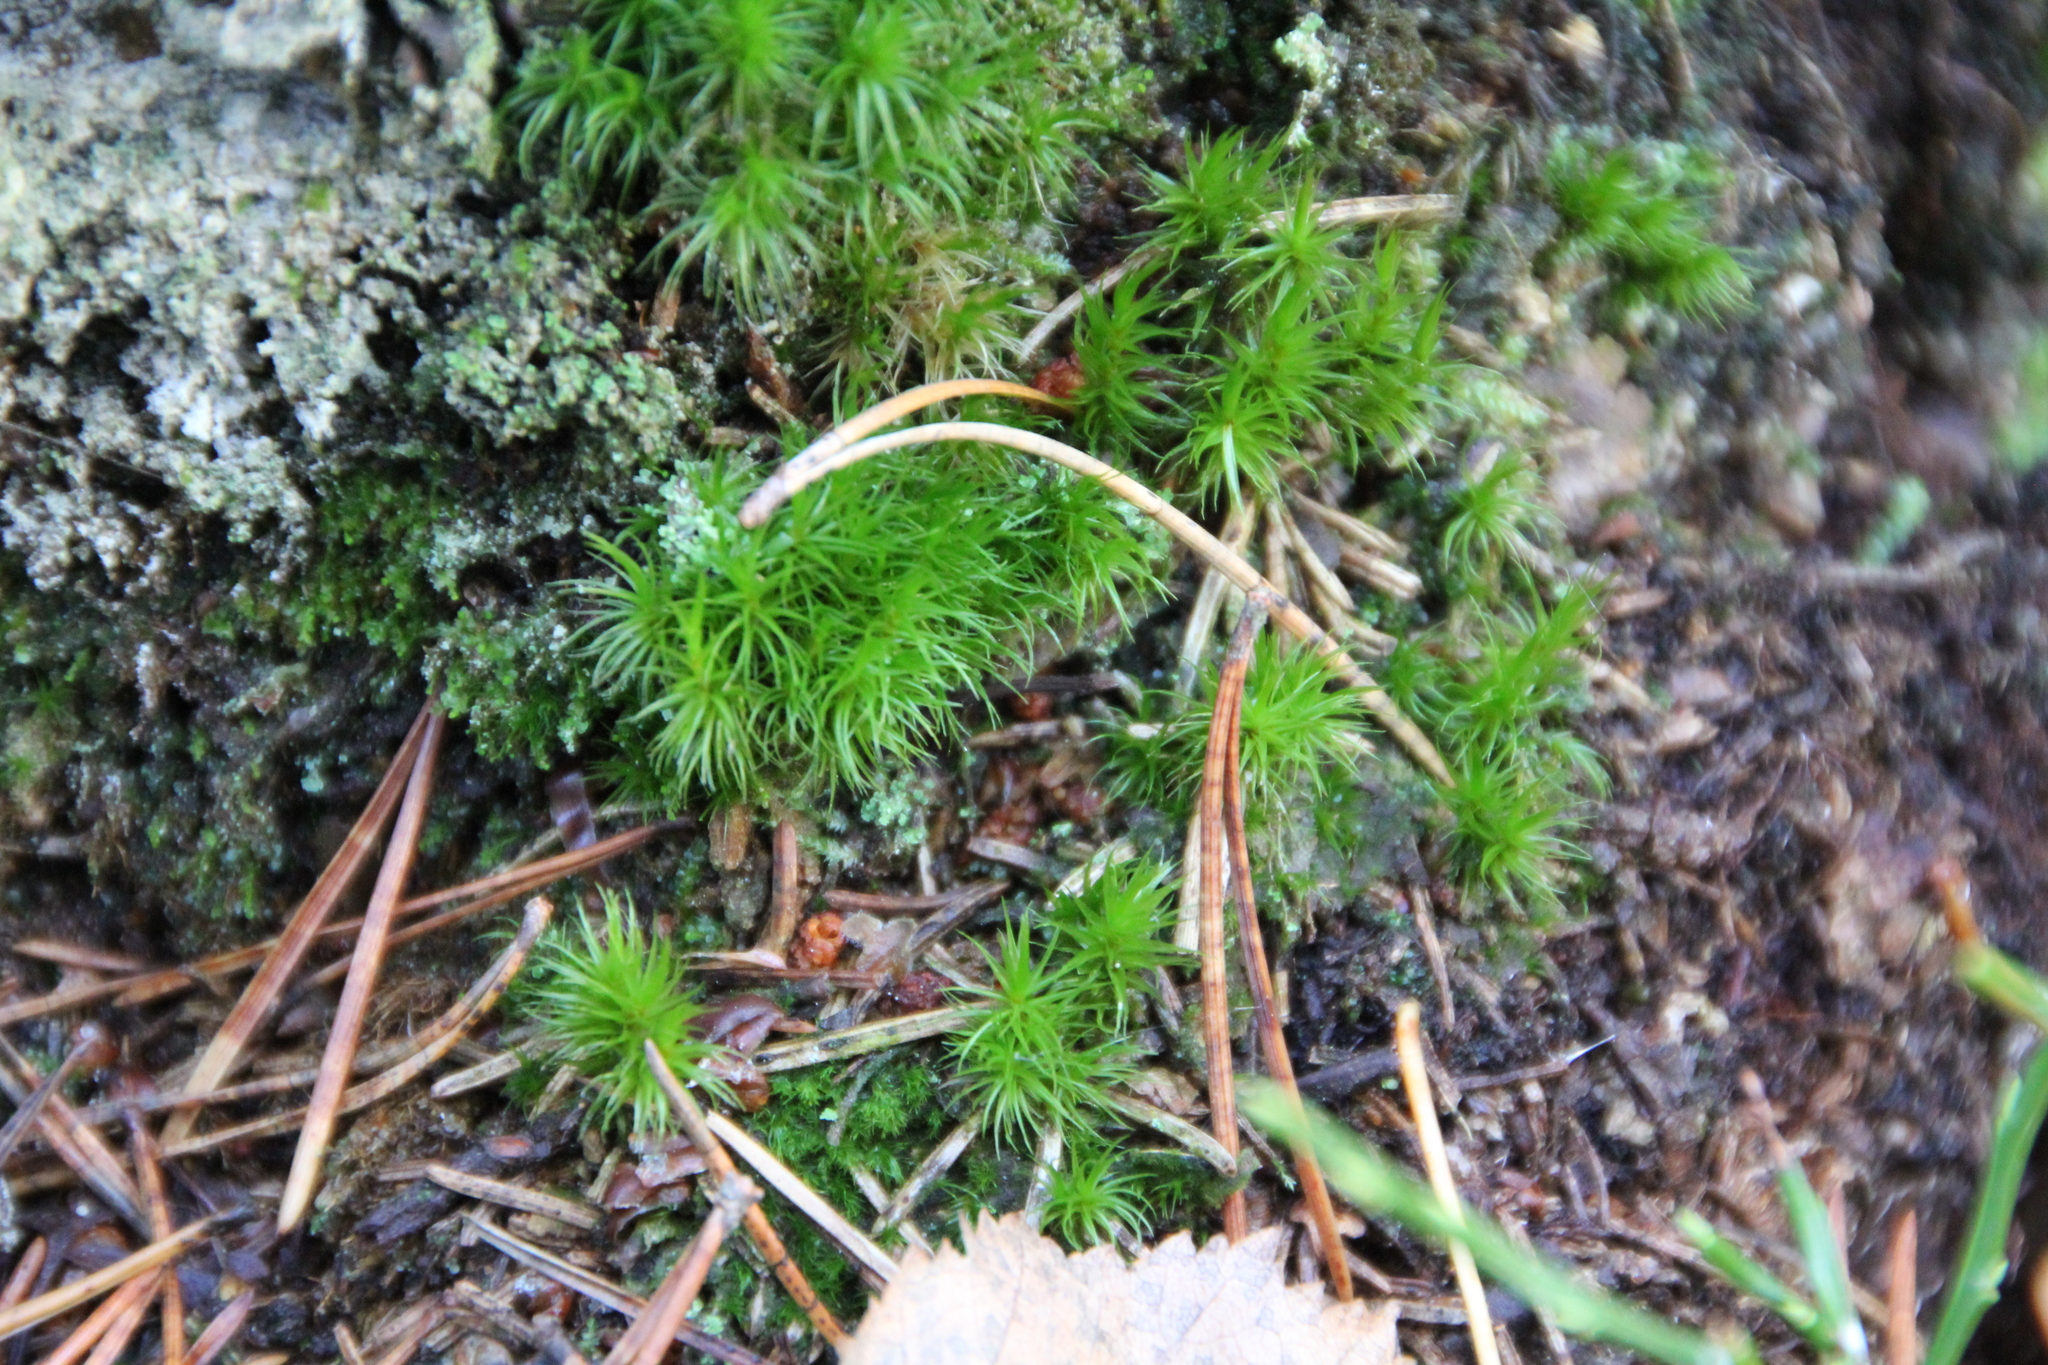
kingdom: Plantae
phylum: Bryophyta
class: Bryopsida
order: Dicranales
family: Dicranaceae
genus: Dicranum
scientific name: Dicranum scoparium
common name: Broom fork-moss
